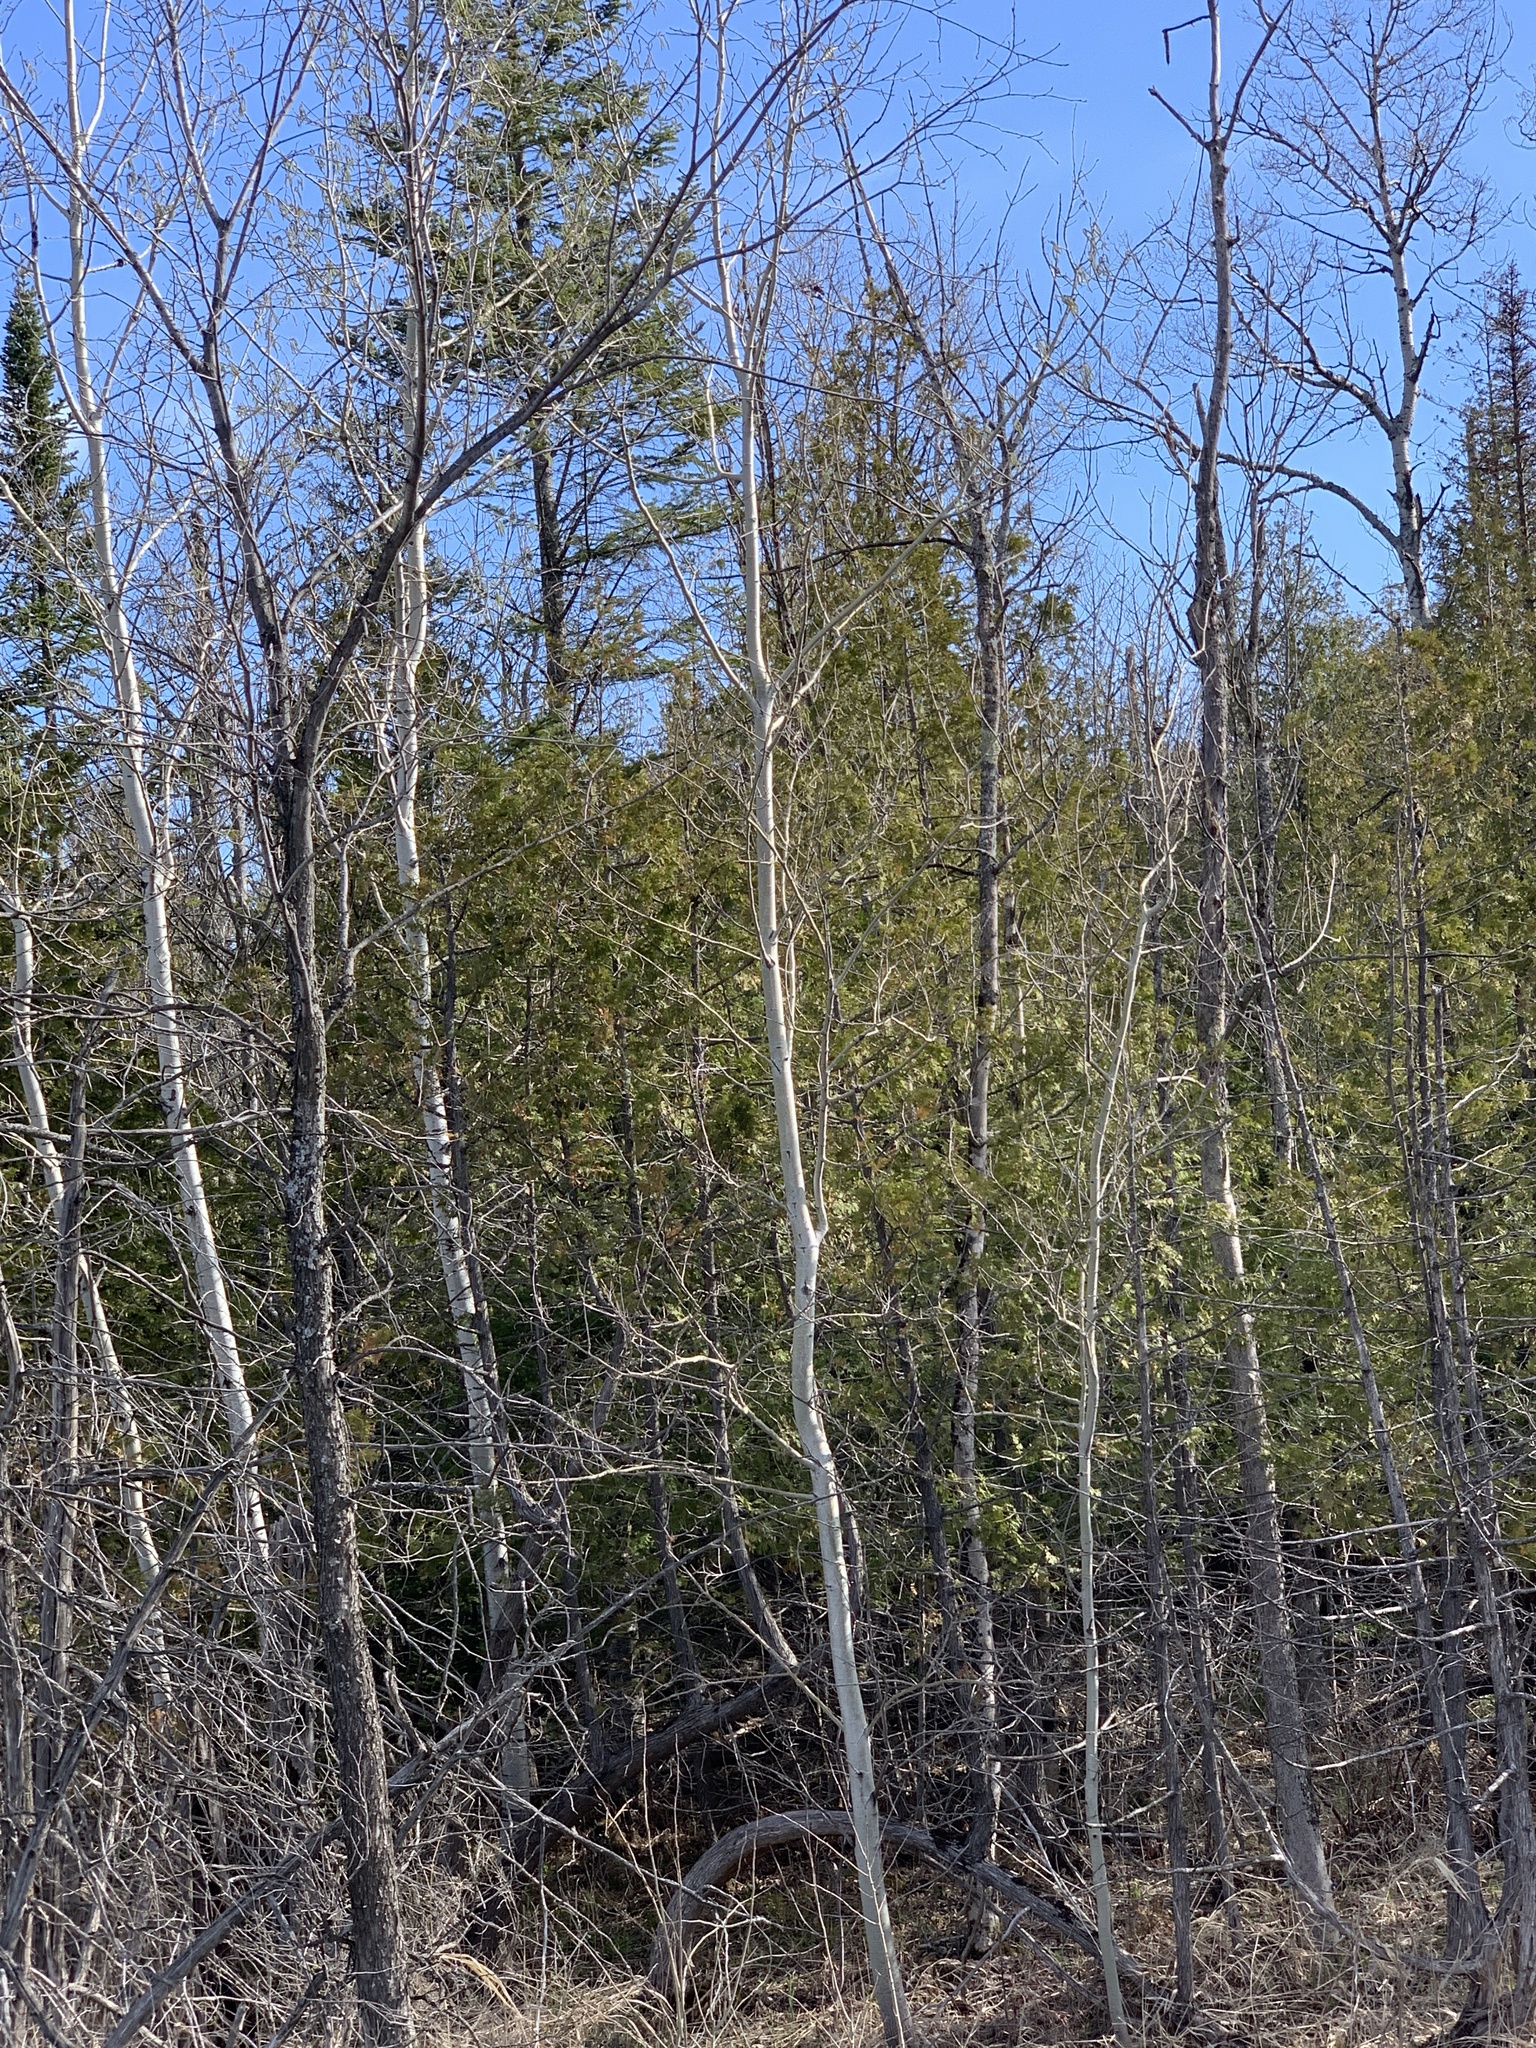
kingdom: Plantae
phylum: Tracheophyta
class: Magnoliopsida
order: Malpighiales
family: Salicaceae
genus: Populus
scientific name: Populus tremuloides
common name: Quaking aspen
